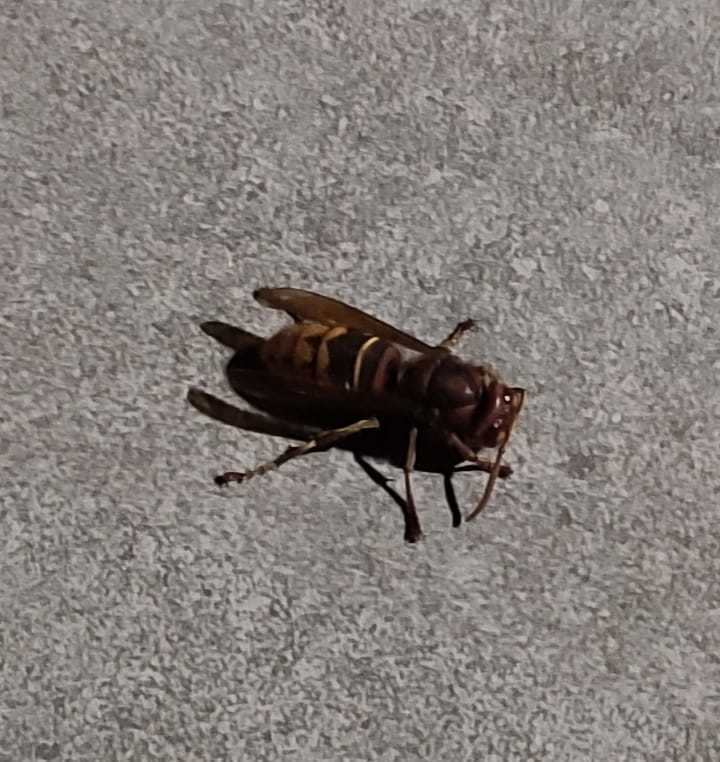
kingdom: Animalia
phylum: Arthropoda
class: Insecta
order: Hymenoptera
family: Vespidae
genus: Vespa
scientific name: Vespa crabro
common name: Hornet
